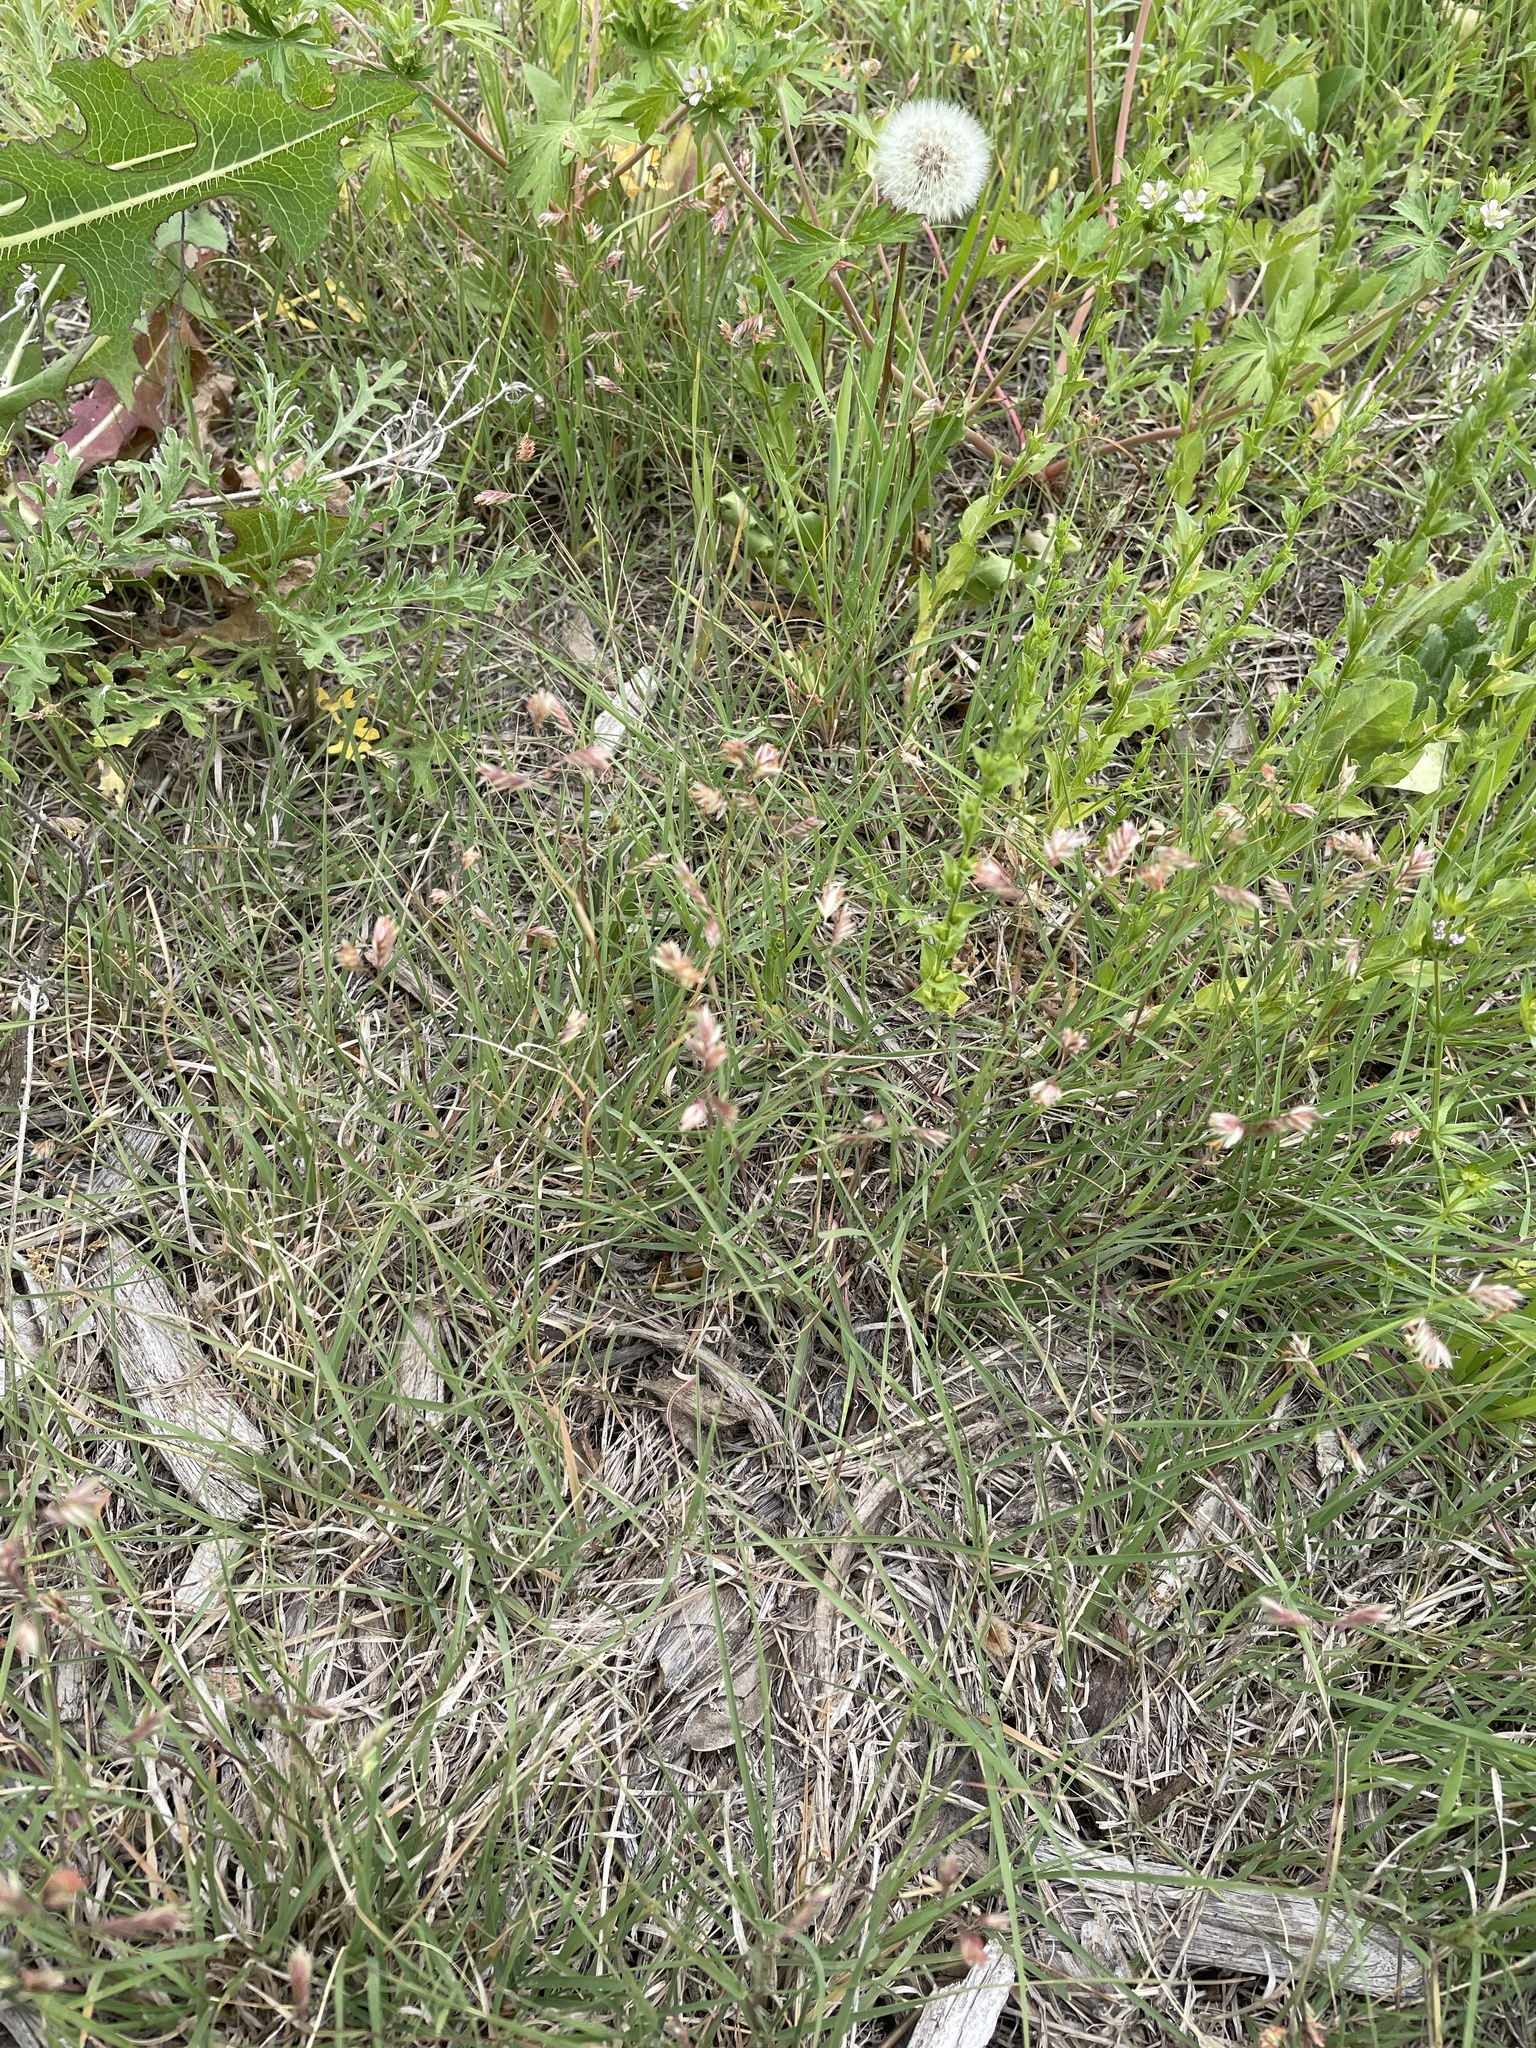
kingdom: Plantae
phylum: Tracheophyta
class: Liliopsida
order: Poales
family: Poaceae
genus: Bouteloua
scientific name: Bouteloua dactyloides
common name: Buffalo grass
